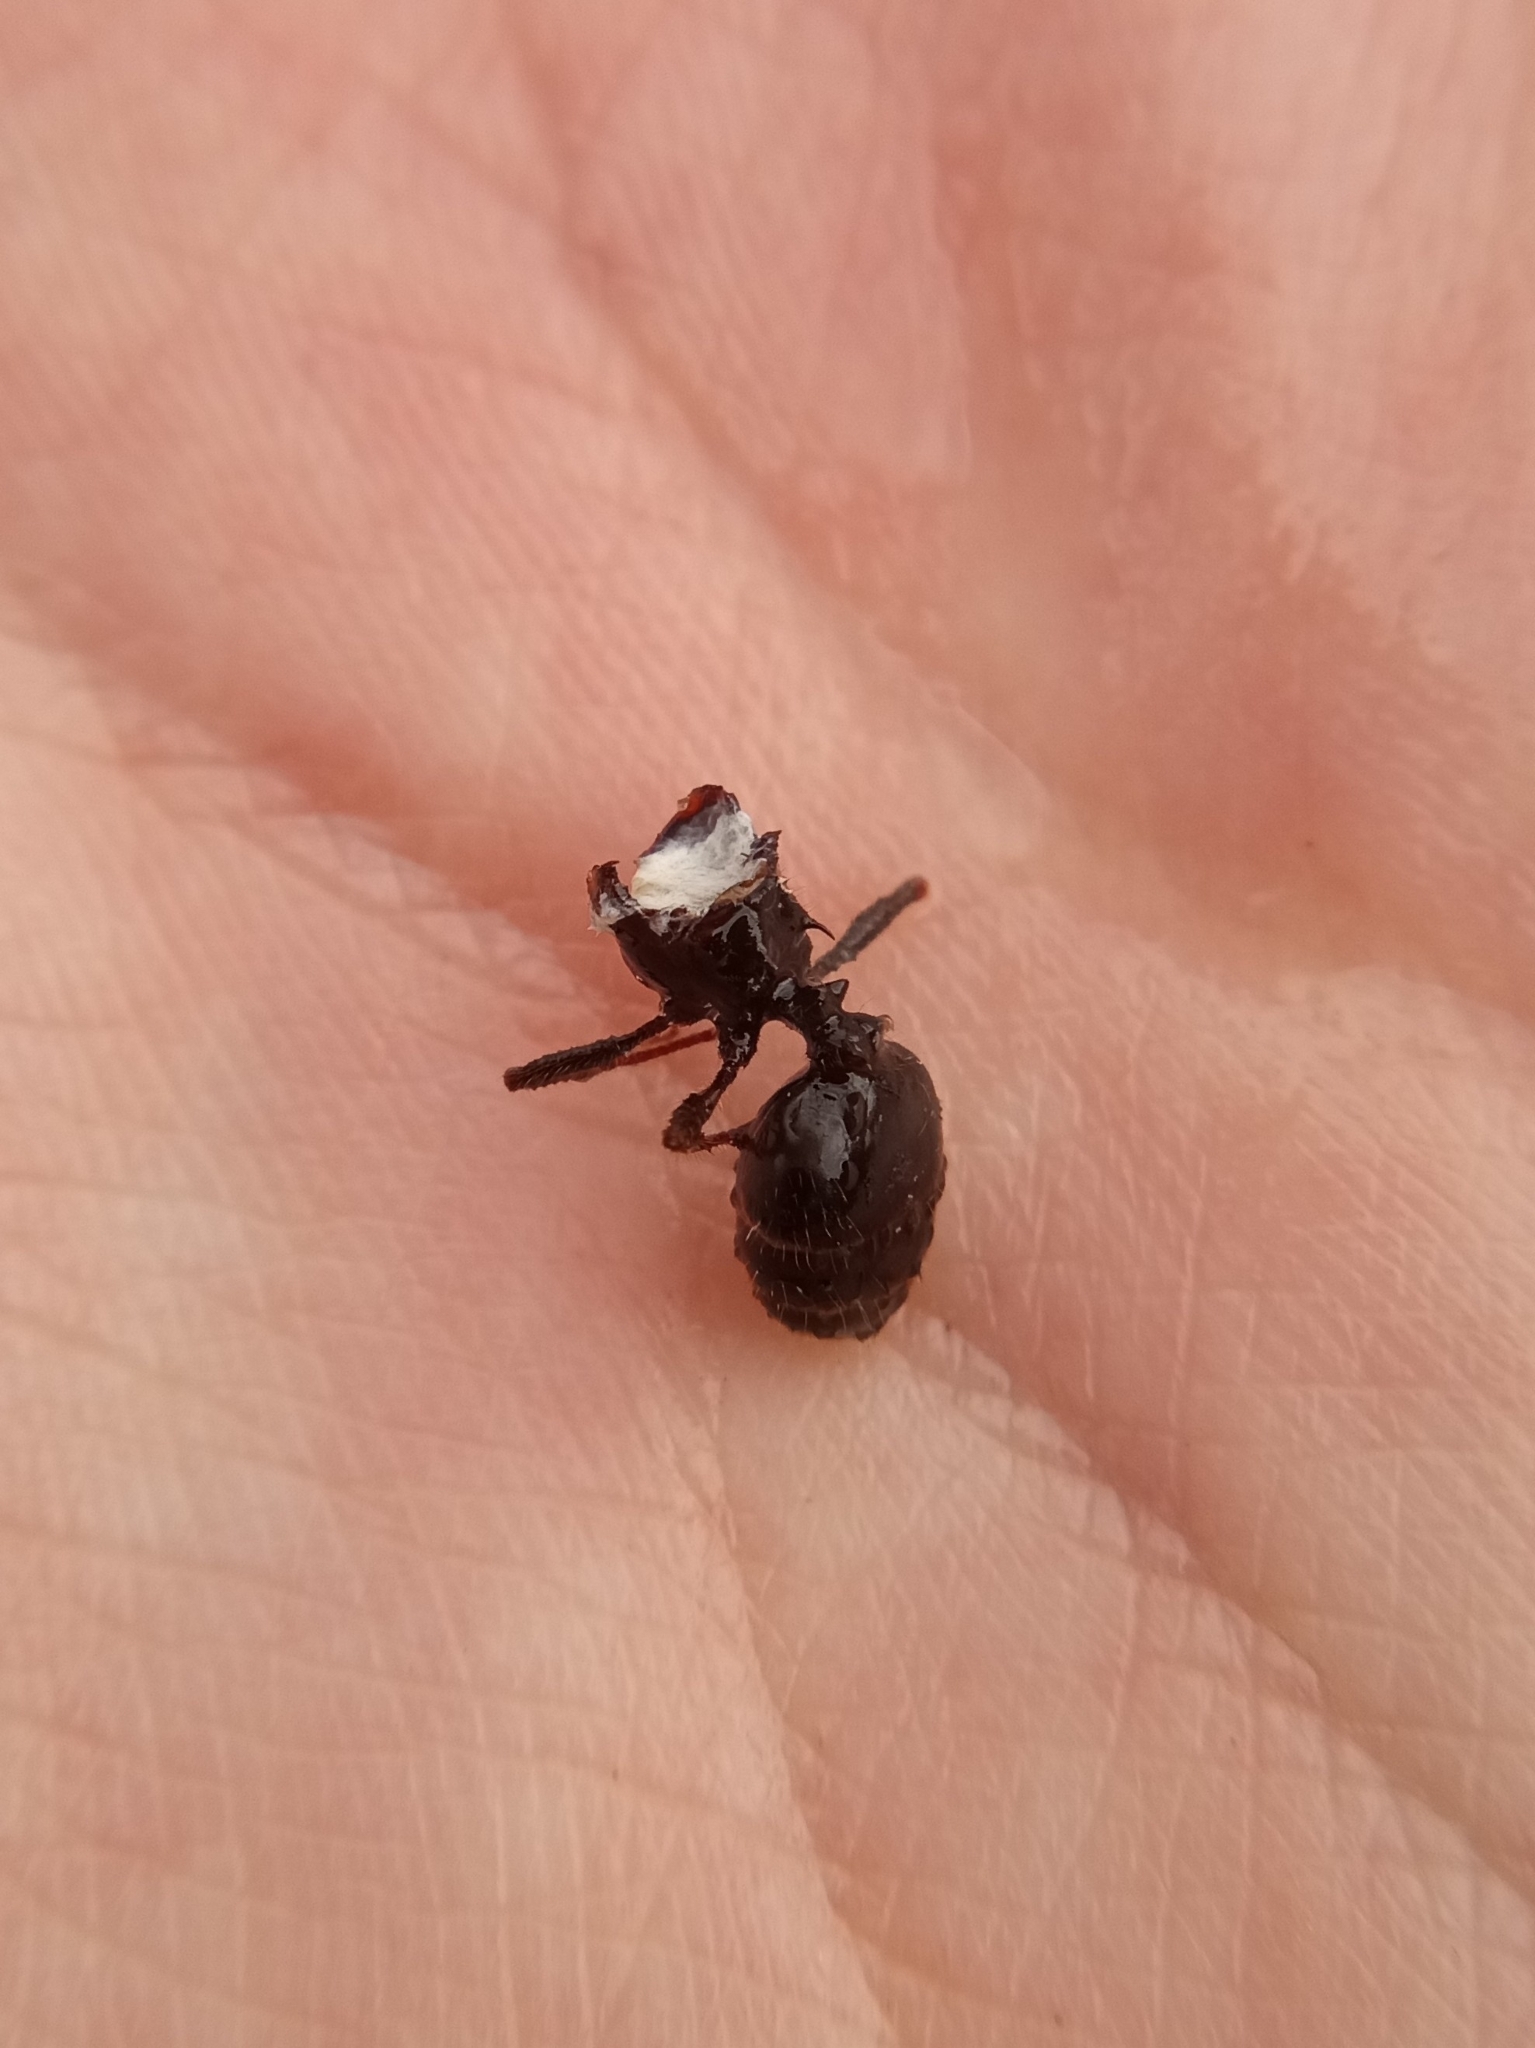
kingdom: Animalia
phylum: Arthropoda
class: Insecta
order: Hymenoptera
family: Formicidae
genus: Pheidole
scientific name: Pheidole rhea
